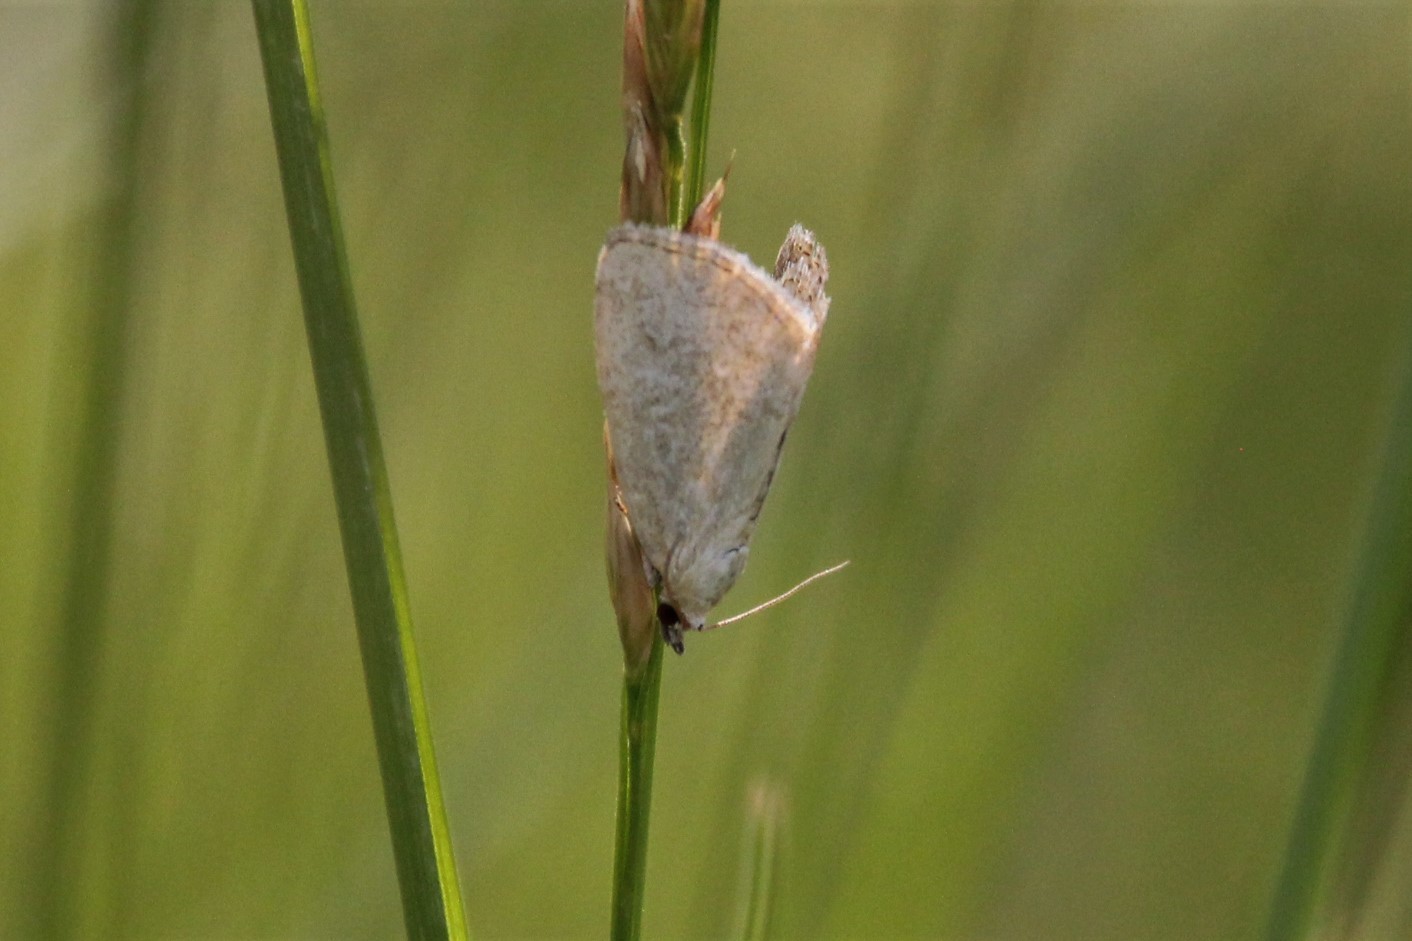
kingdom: Animalia
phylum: Arthropoda
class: Insecta
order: Lepidoptera
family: Noctuidae
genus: Protodeltote
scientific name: Protodeltote albidula
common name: Pale glyph
